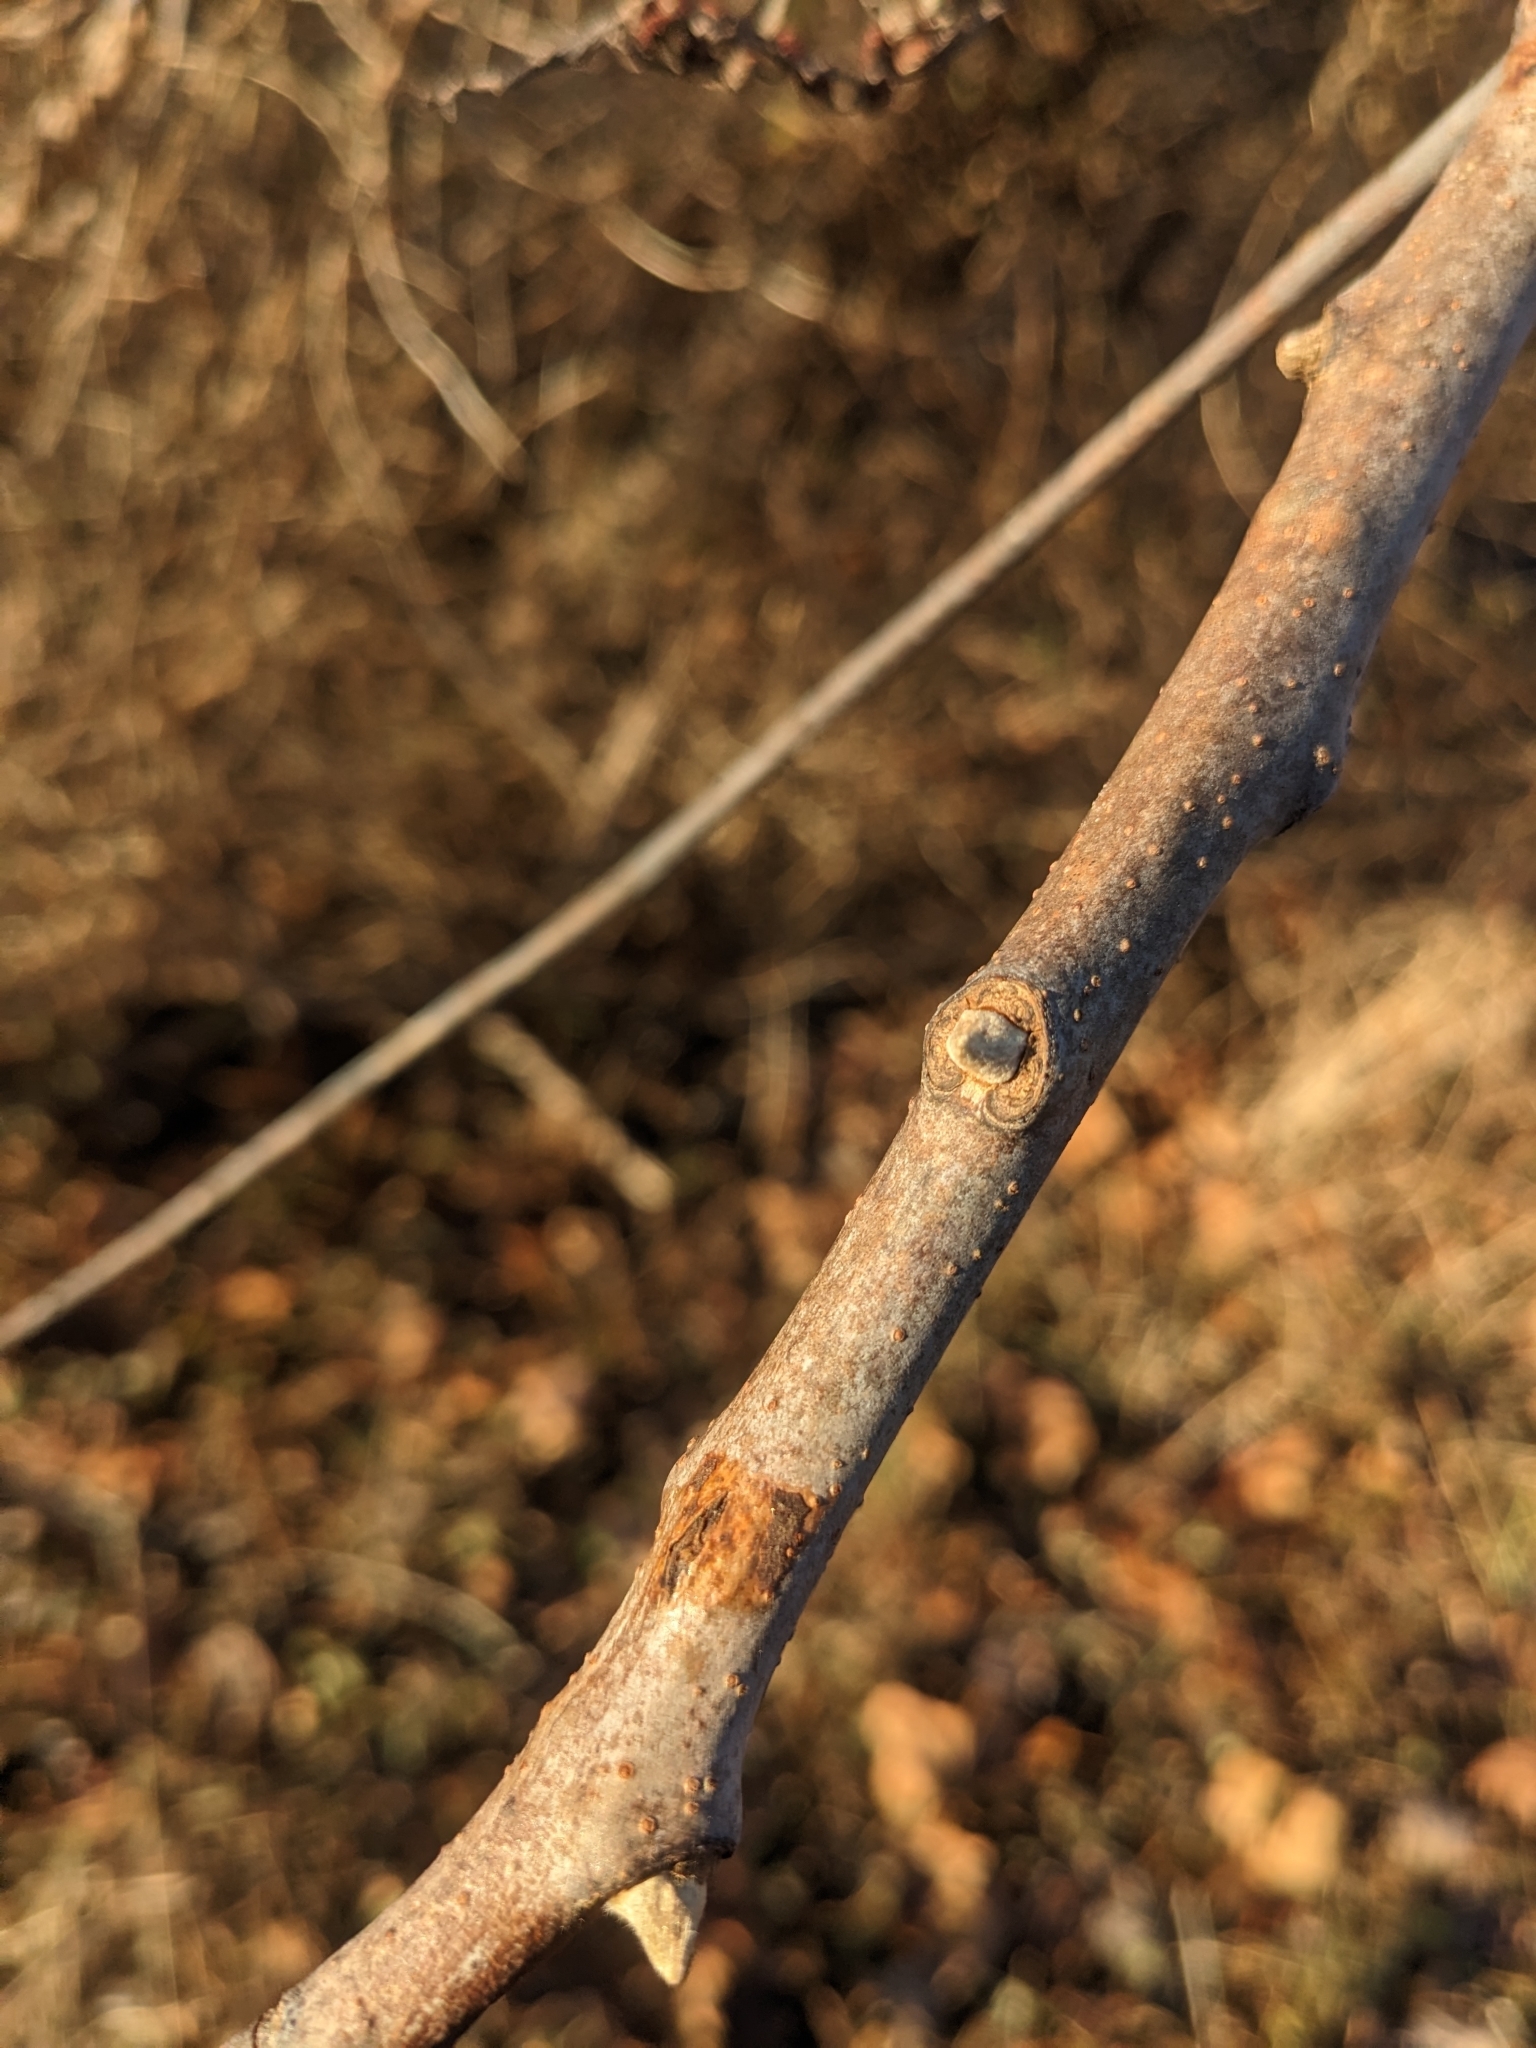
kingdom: Plantae
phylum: Tracheophyta
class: Magnoliopsida
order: Sapindales
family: Anacardiaceae
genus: Rhus
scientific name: Rhus glabra
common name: Scarlet sumac
